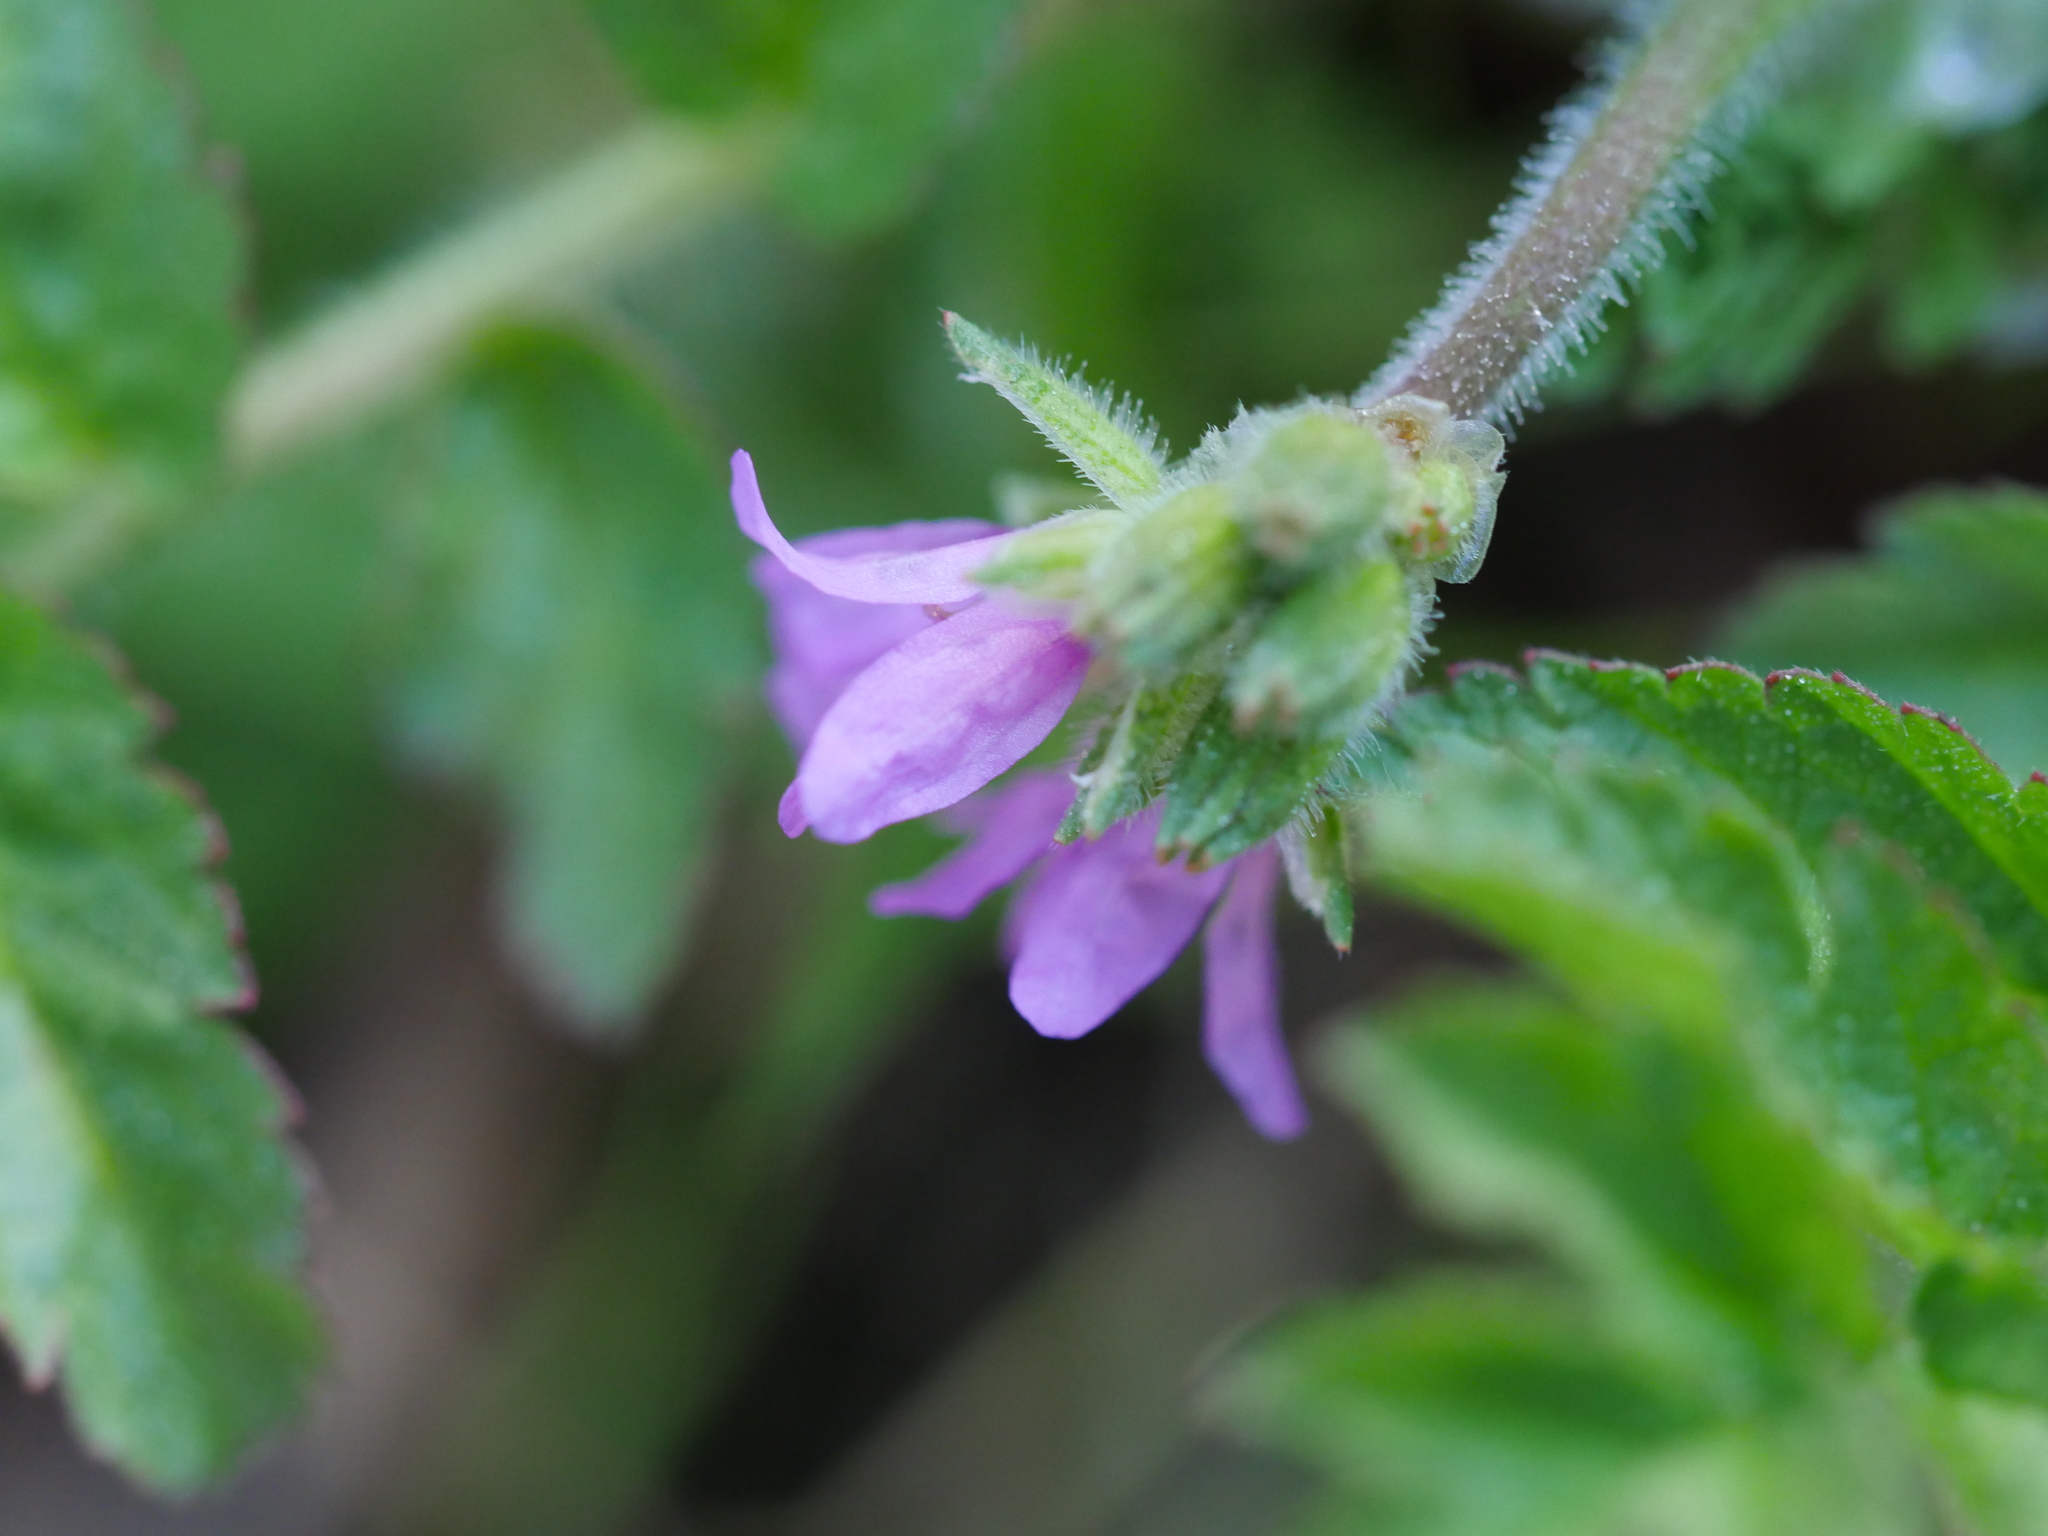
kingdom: Plantae
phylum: Tracheophyta
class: Magnoliopsida
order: Geraniales
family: Geraniaceae
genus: Erodium
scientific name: Erodium moschatum
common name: Musk stork's-bill
